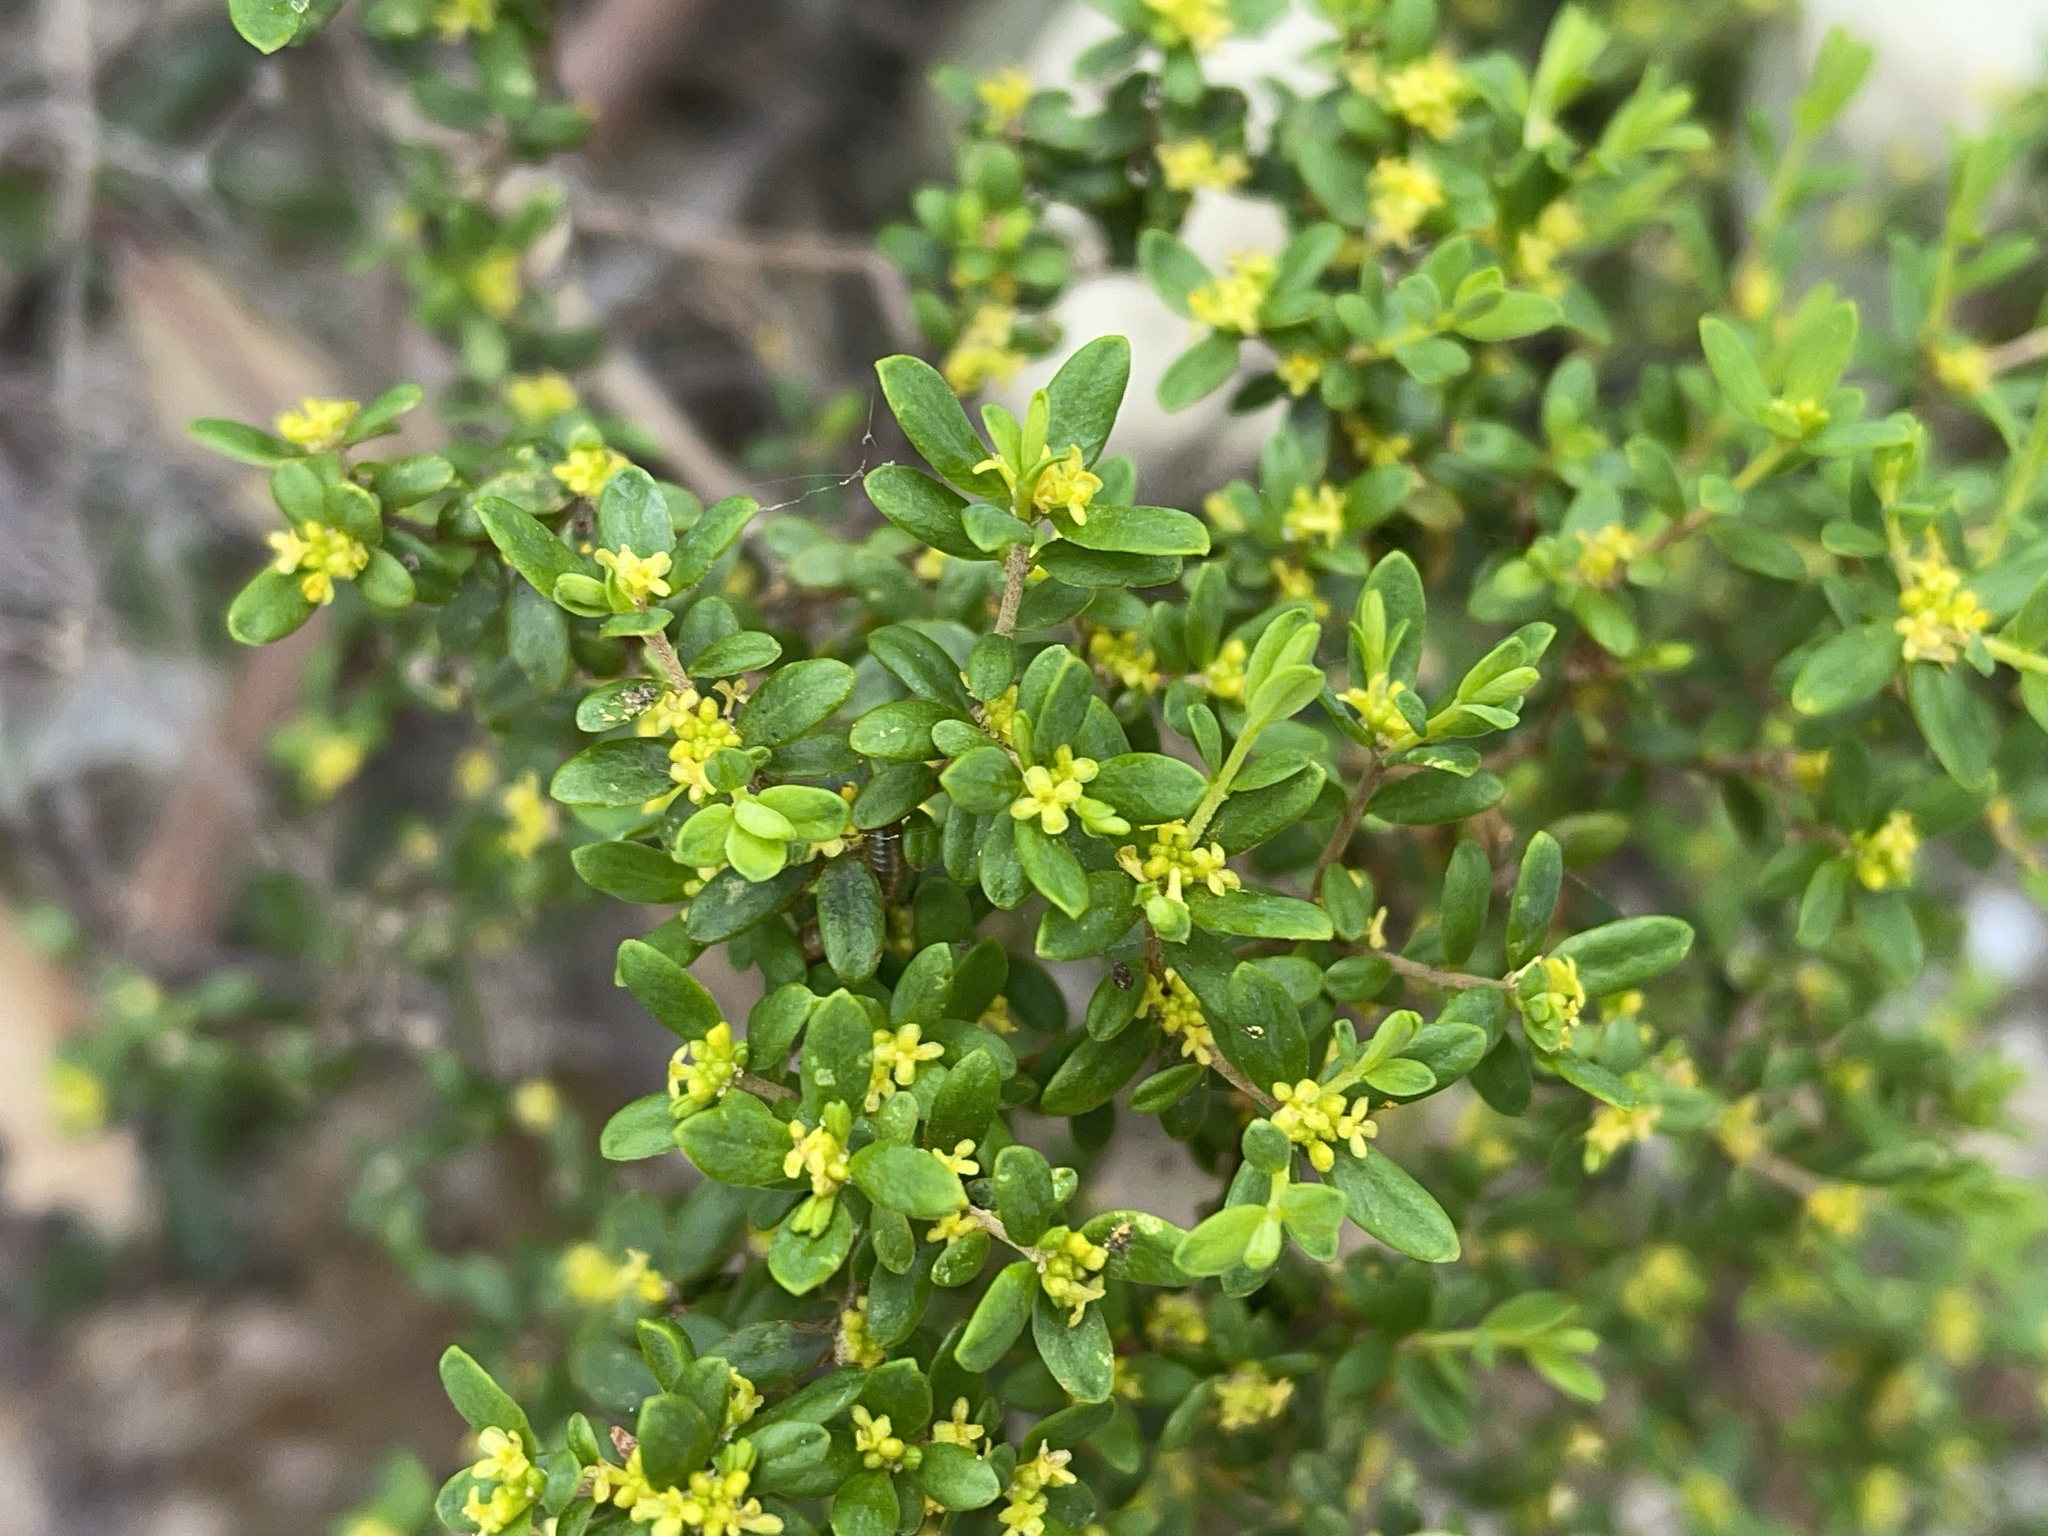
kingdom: Plantae
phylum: Tracheophyta
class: Magnoliopsida
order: Malvales
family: Thymelaeaceae
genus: Pimelea
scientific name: Pimelea hewardiana
